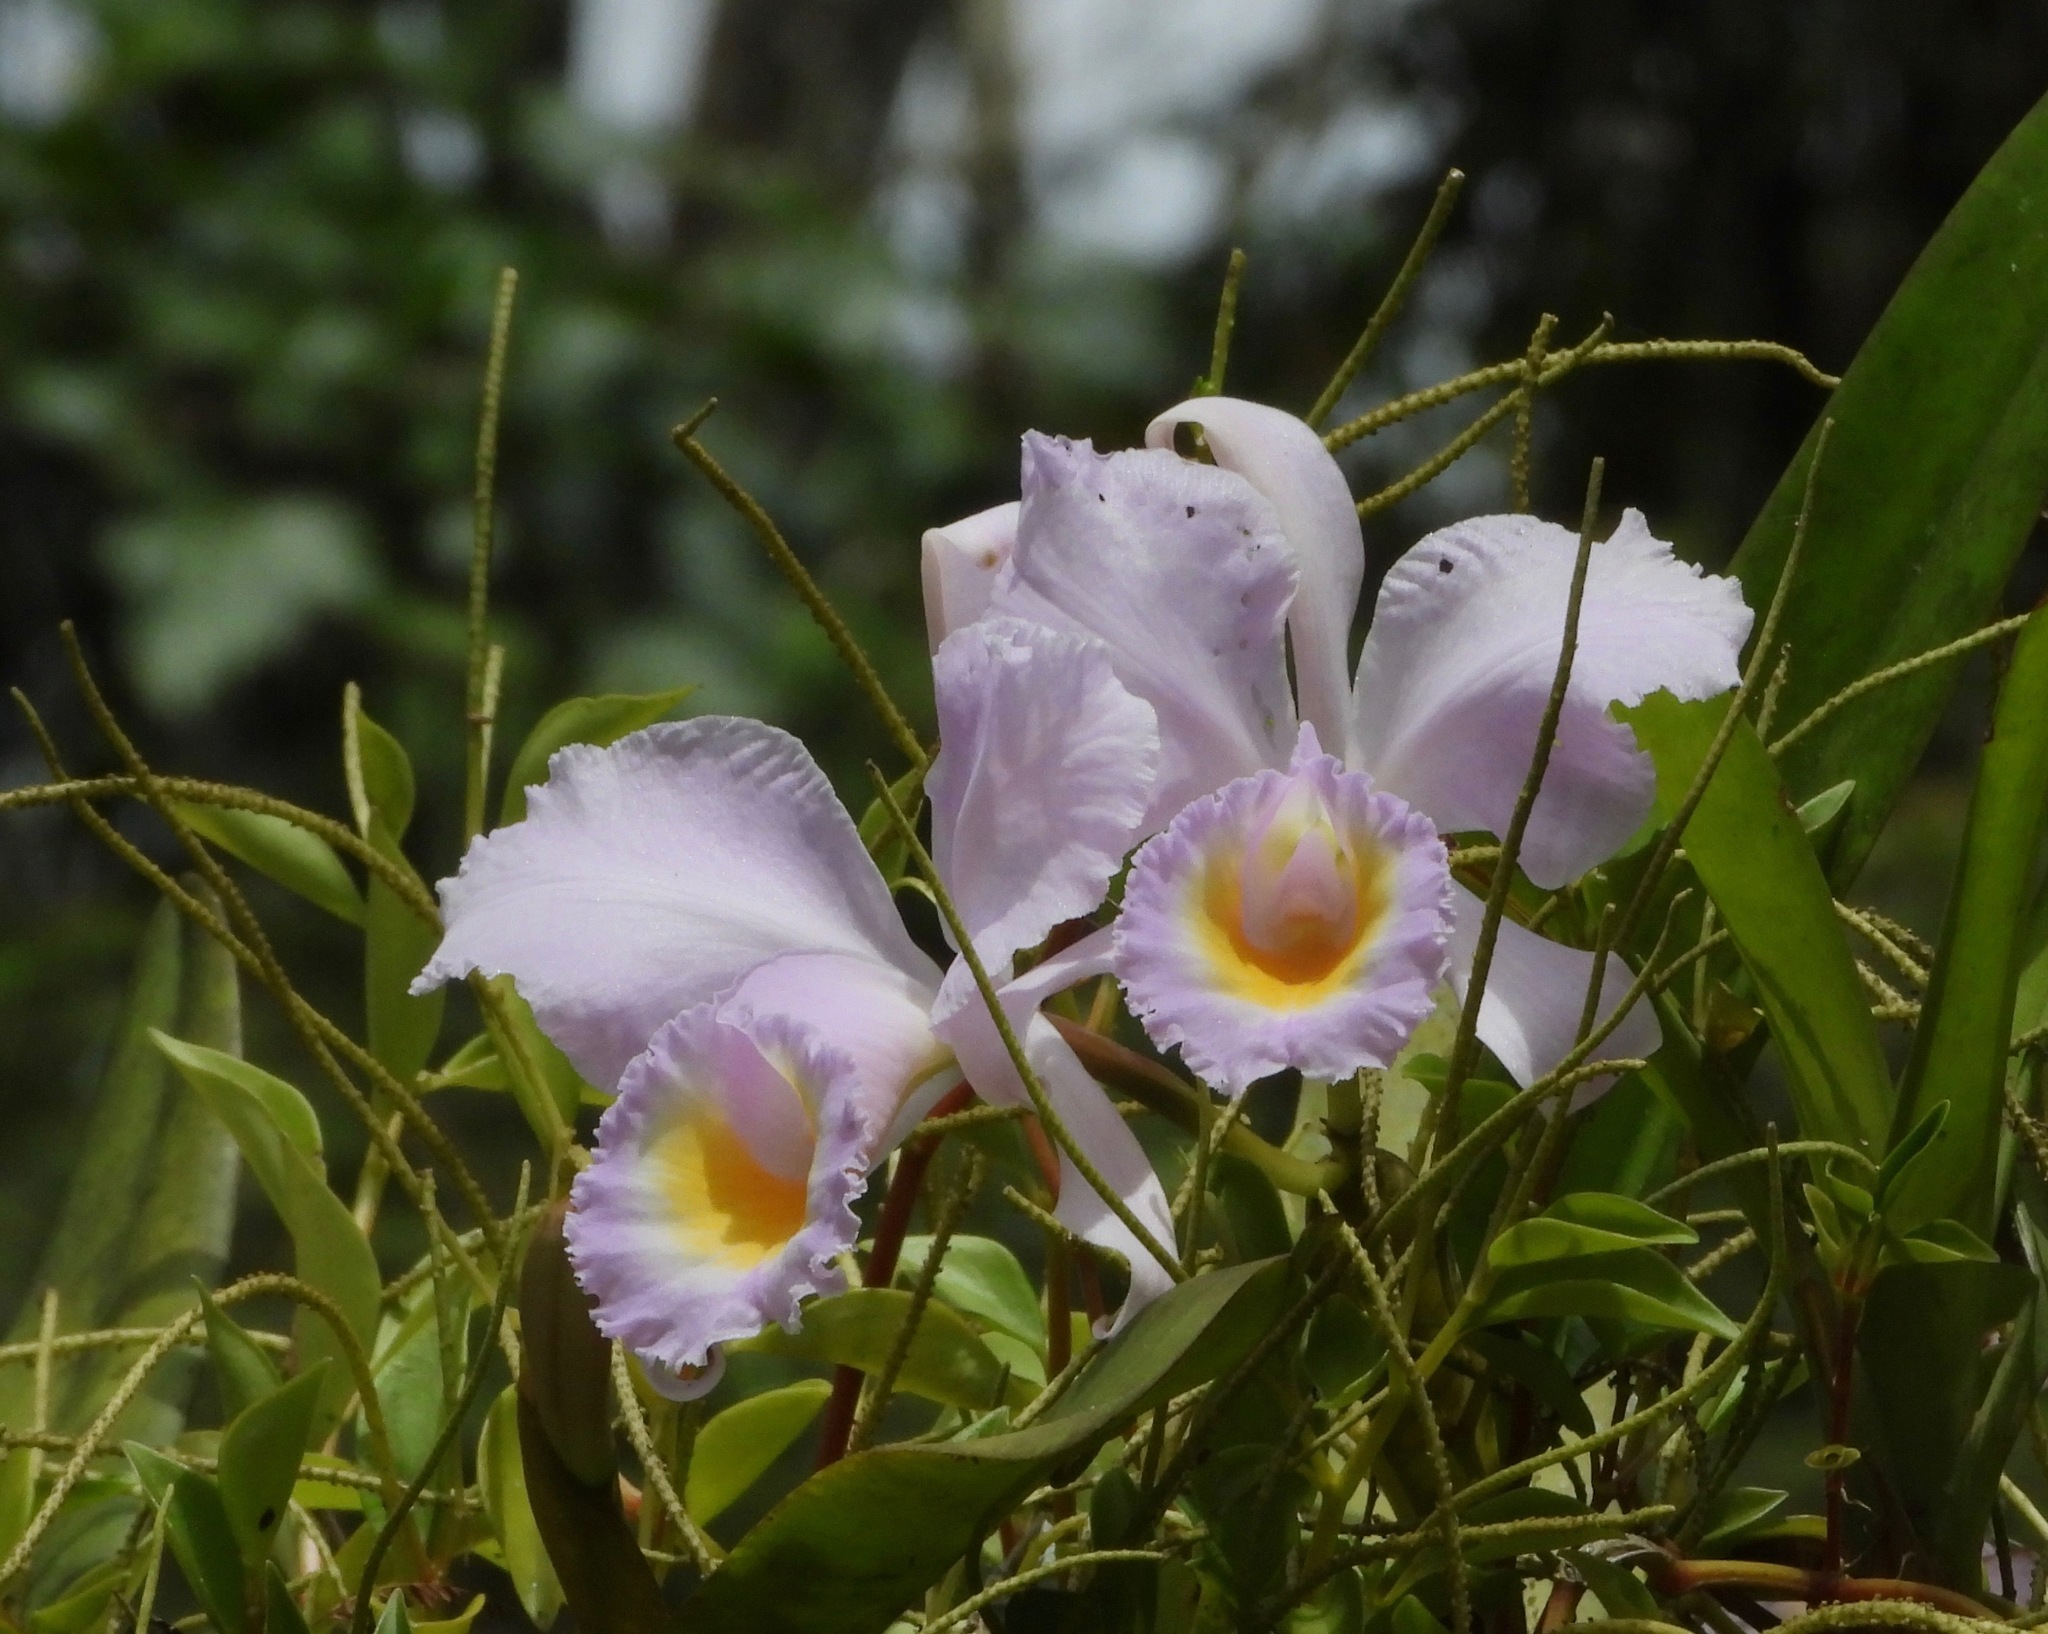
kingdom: Plantae
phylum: Tracheophyta
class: Liliopsida
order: Asparagales
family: Orchidaceae
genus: Cattleya
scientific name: Cattleya schroederae
